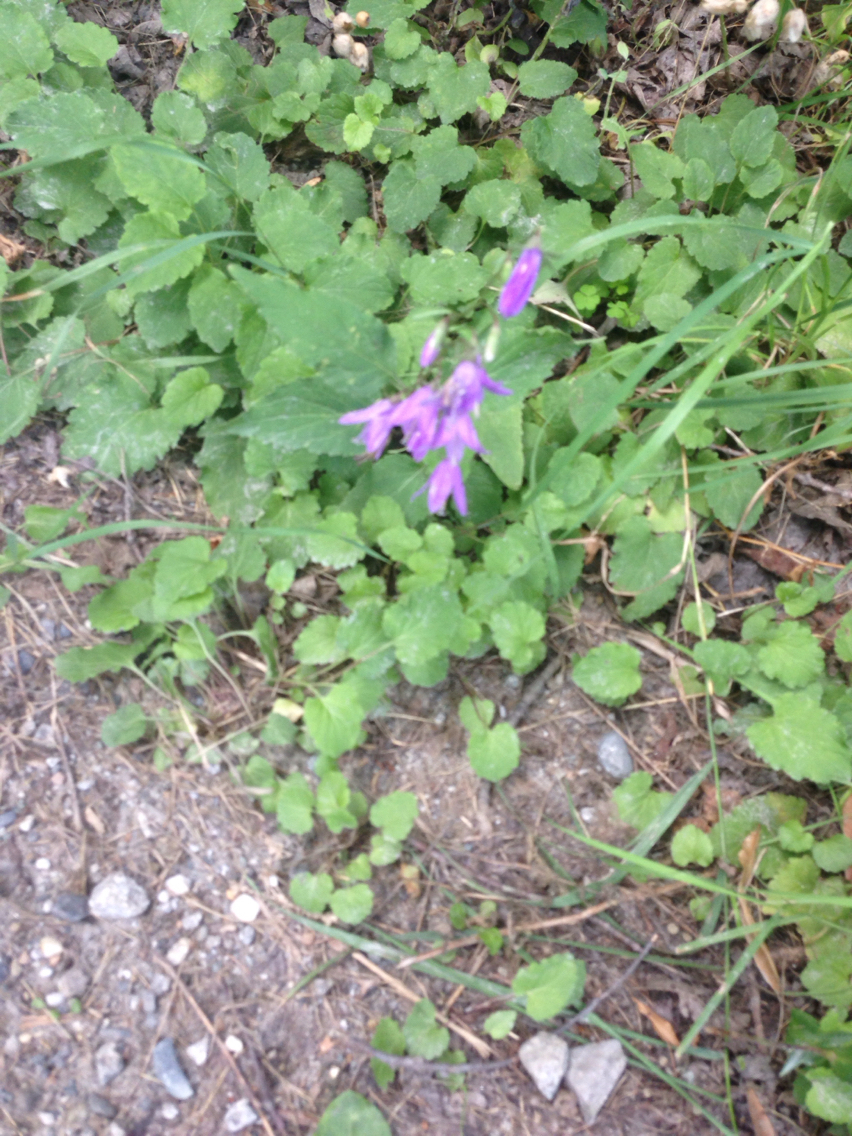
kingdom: Plantae
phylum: Tracheophyta
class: Magnoliopsida
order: Asterales
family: Campanulaceae
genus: Campanula
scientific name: Campanula rapunculoides
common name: Creeping bellflower
